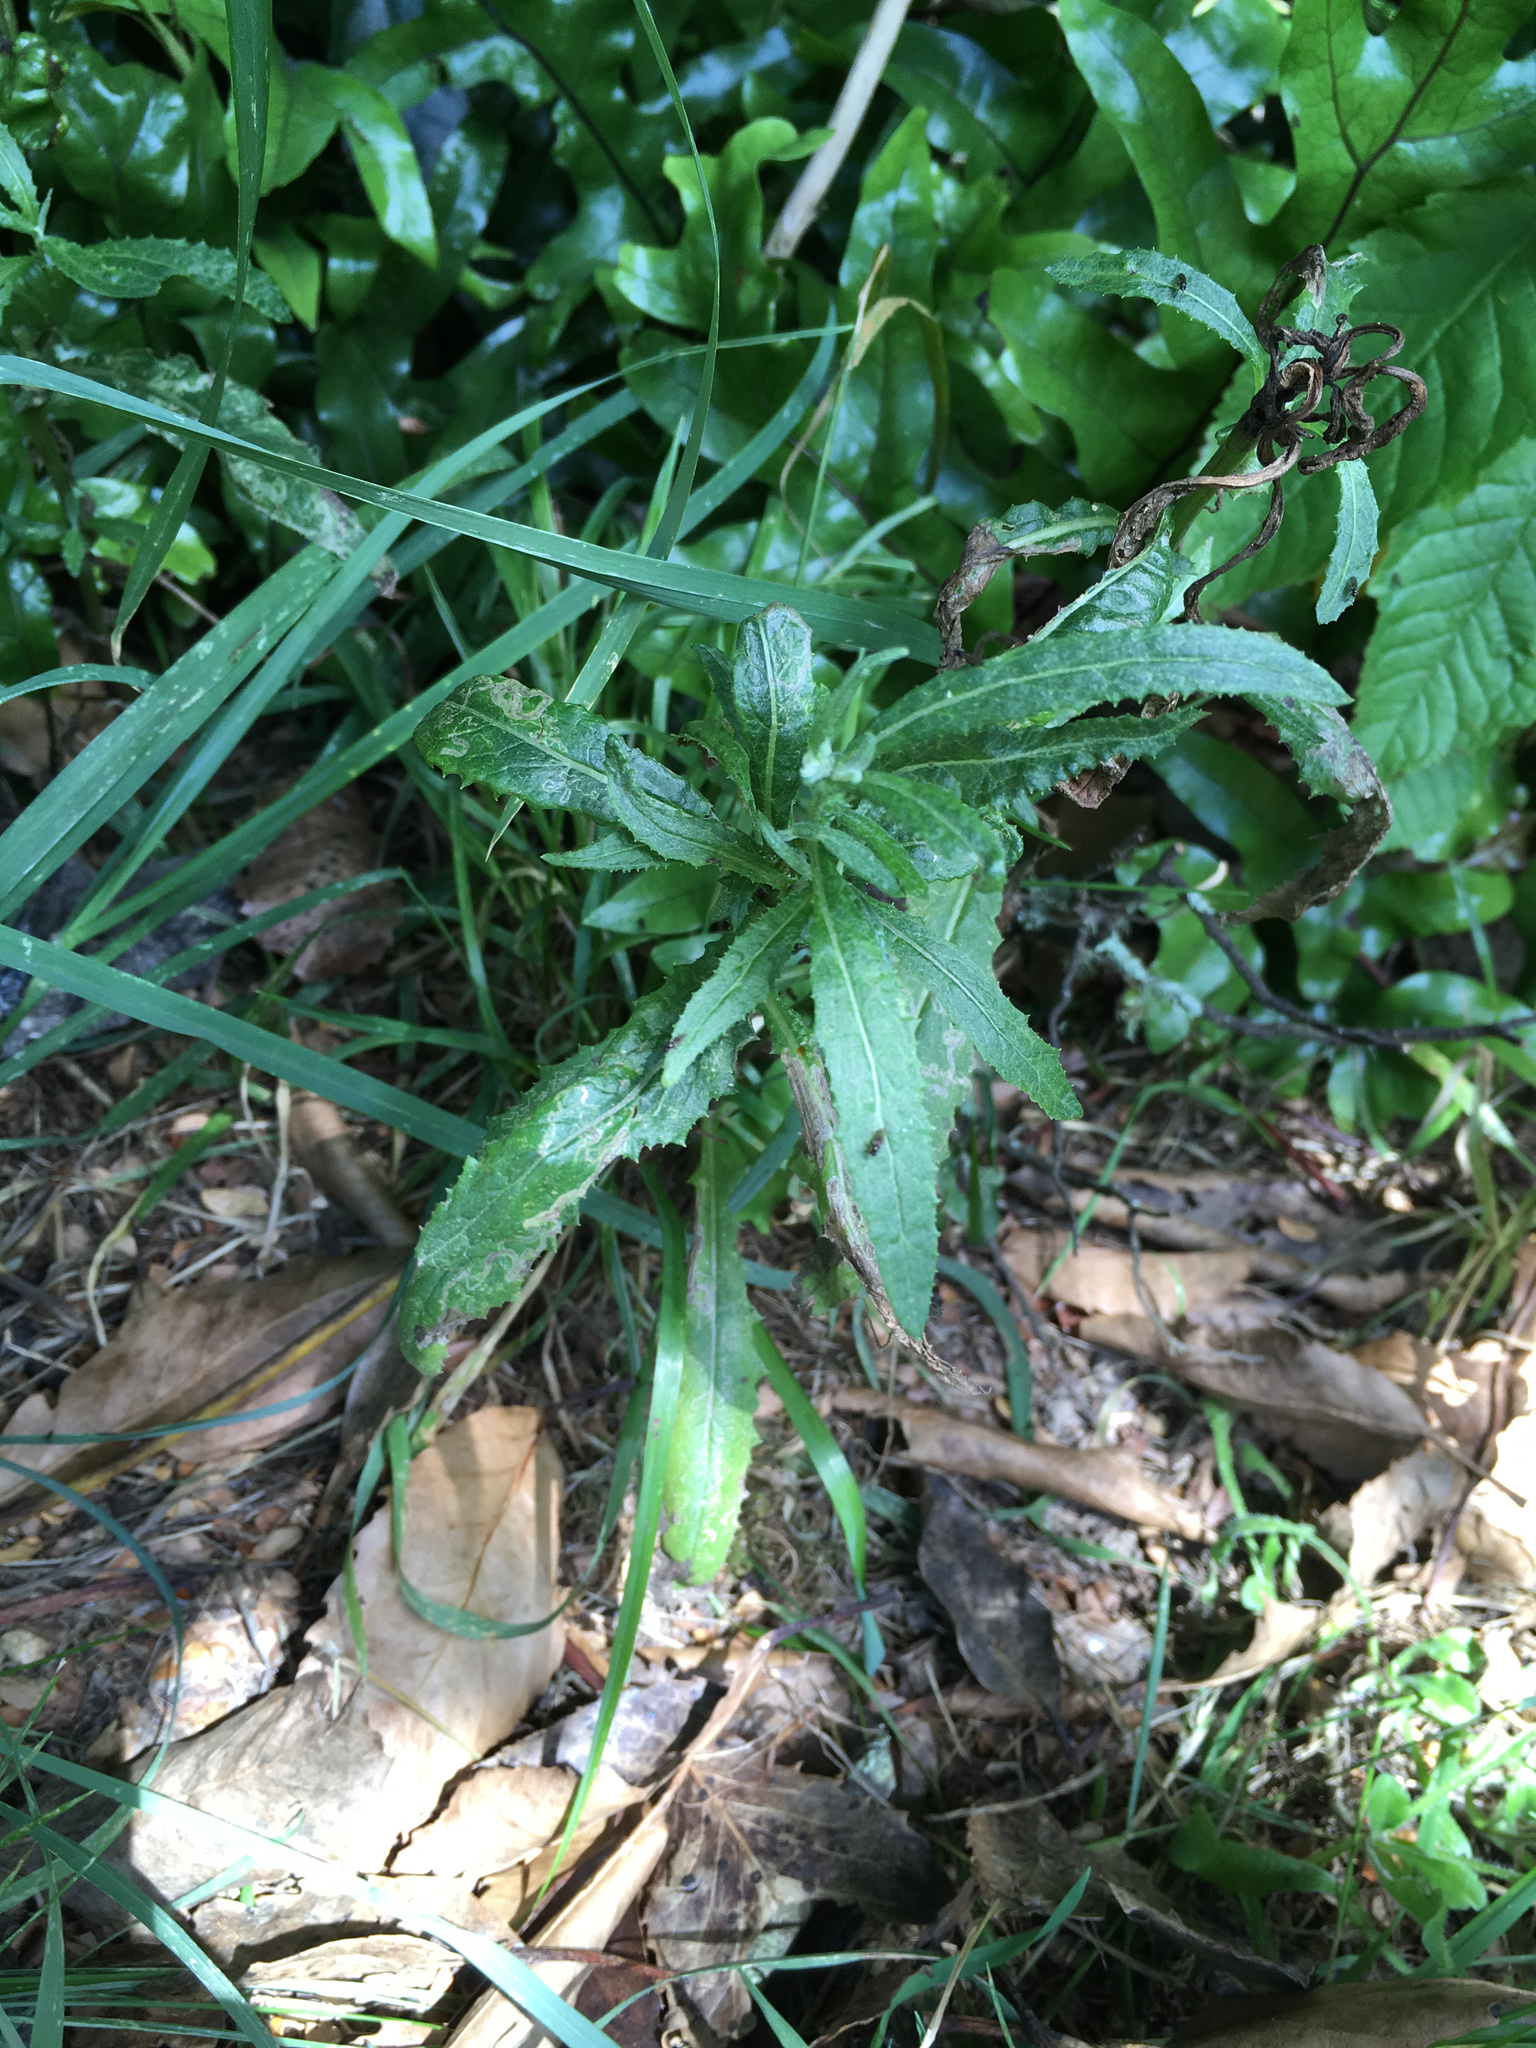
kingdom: Plantae
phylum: Tracheophyta
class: Magnoliopsida
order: Asterales
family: Asteraceae
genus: Senecio
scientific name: Senecio minimus
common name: Toothed fireweed
